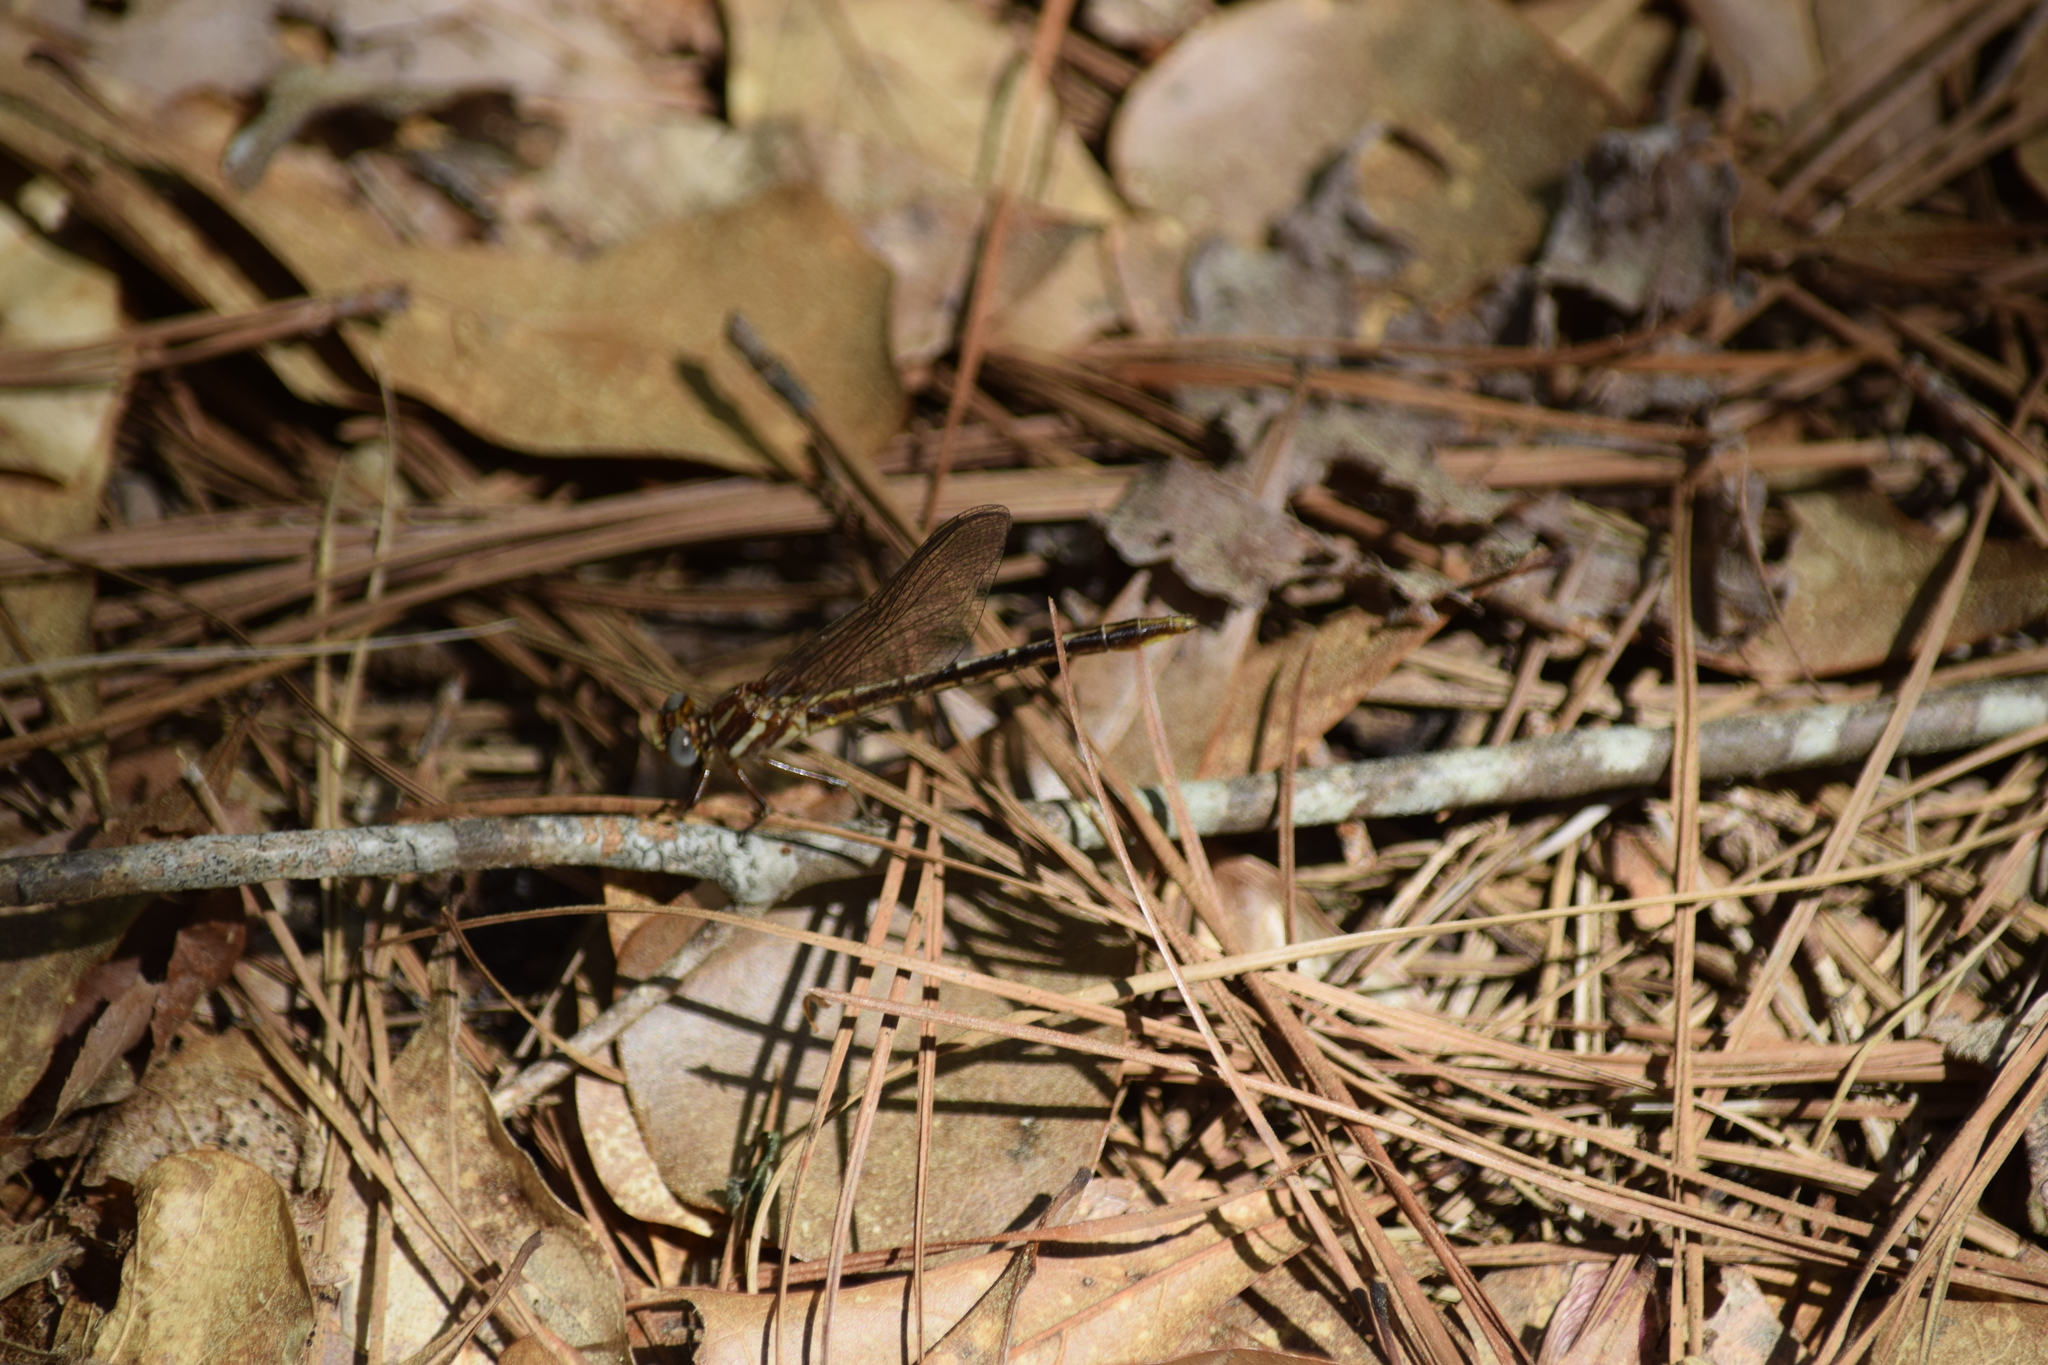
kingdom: Animalia
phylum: Arthropoda
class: Insecta
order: Odonata
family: Gomphidae
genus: Phanogomphus
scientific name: Phanogomphus lividus
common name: Ashy clubtail
